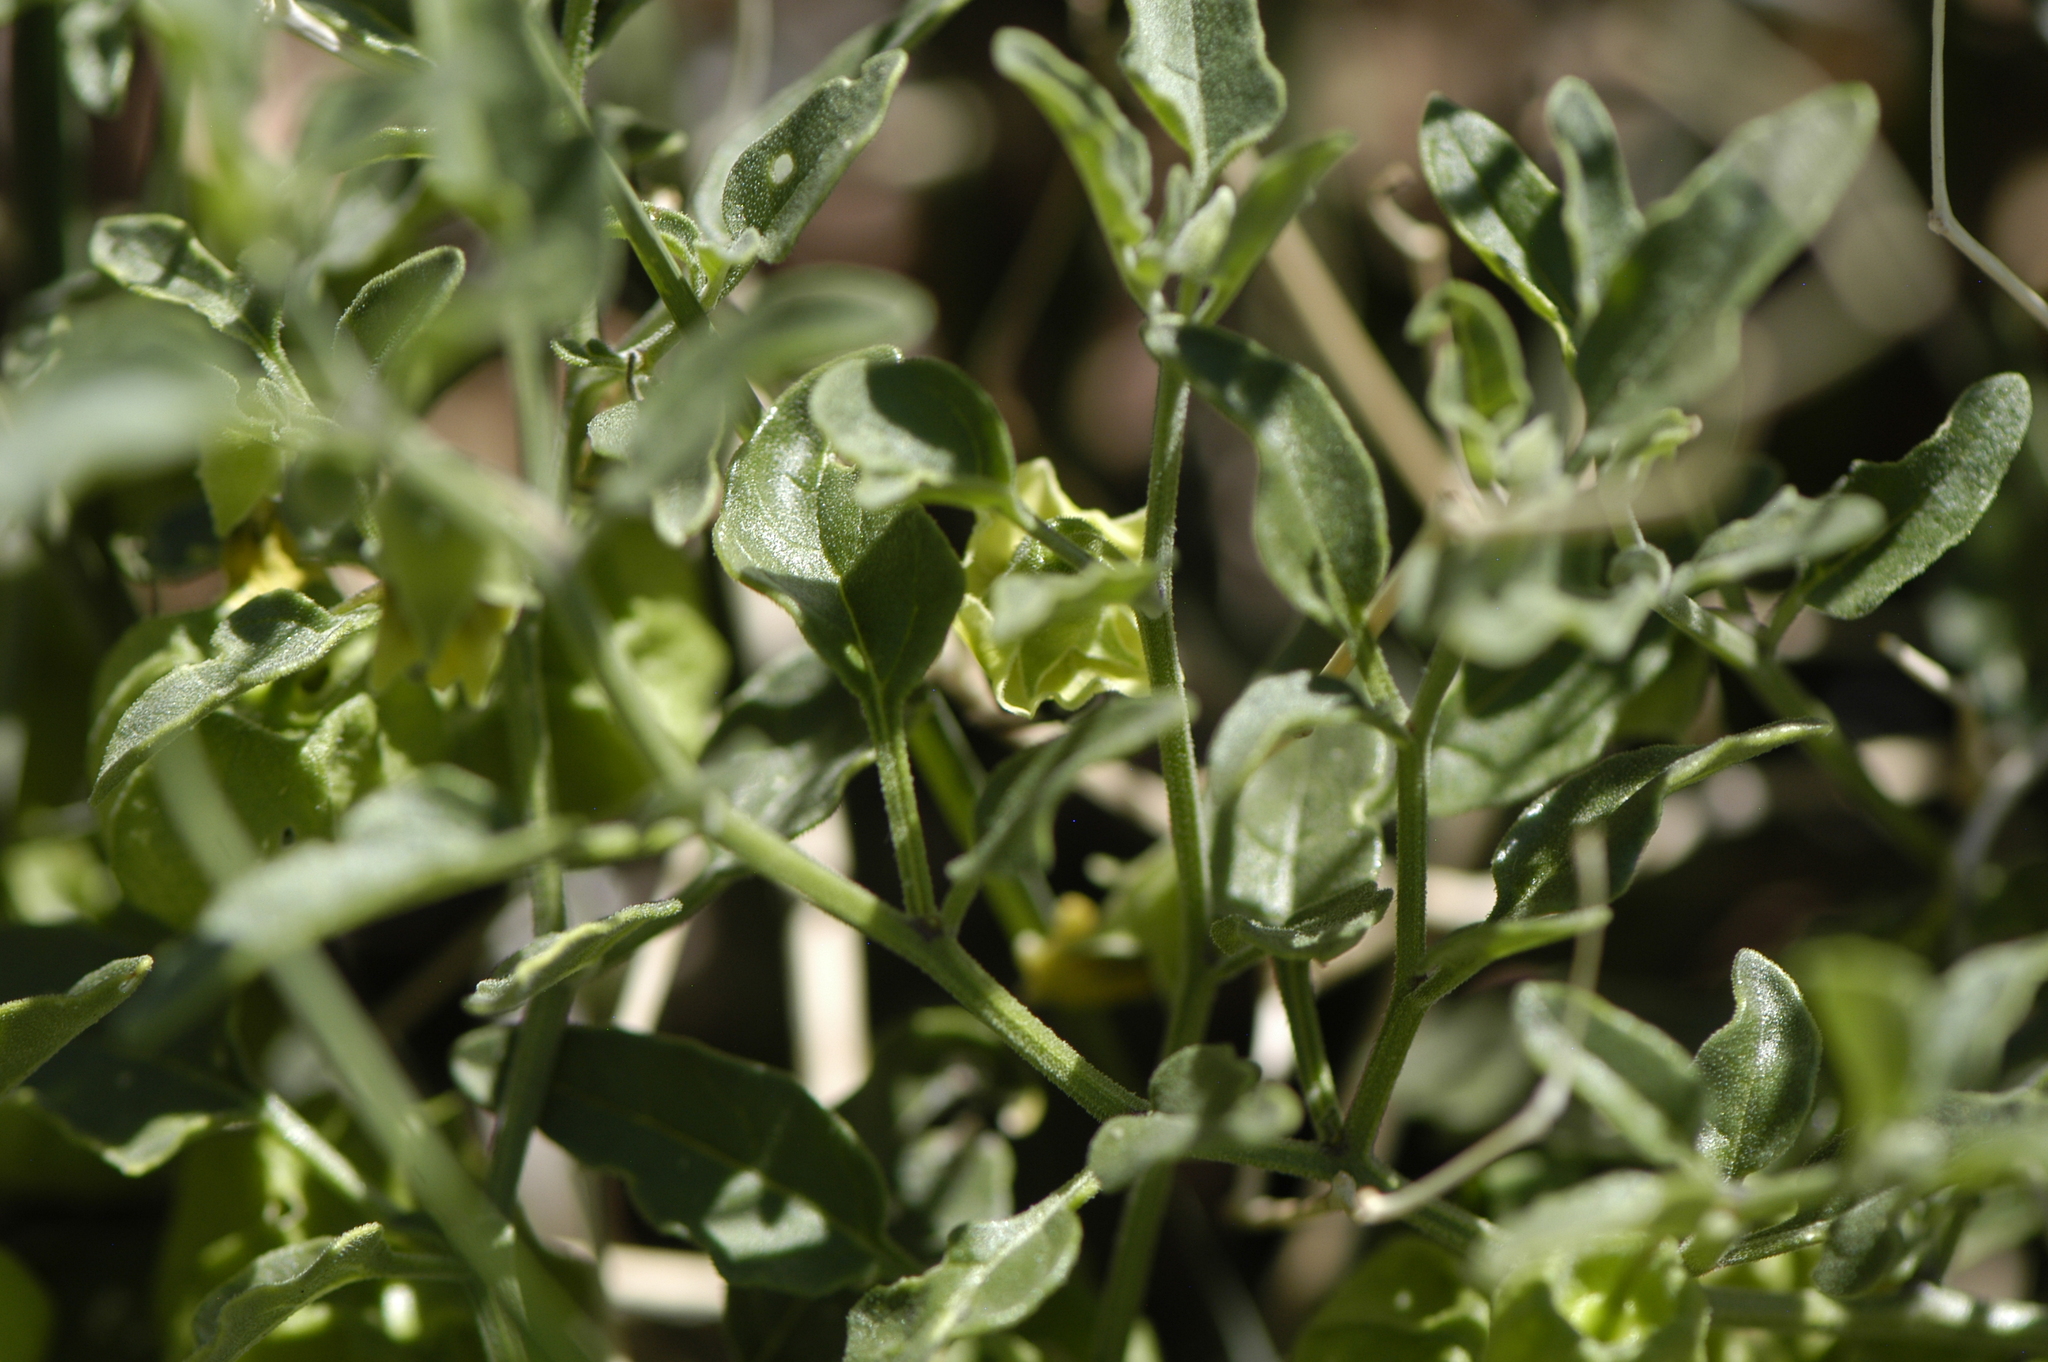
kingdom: Plantae
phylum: Tracheophyta
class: Magnoliopsida
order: Solanales
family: Solanaceae
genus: Physalis
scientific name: Physalis fendleri
